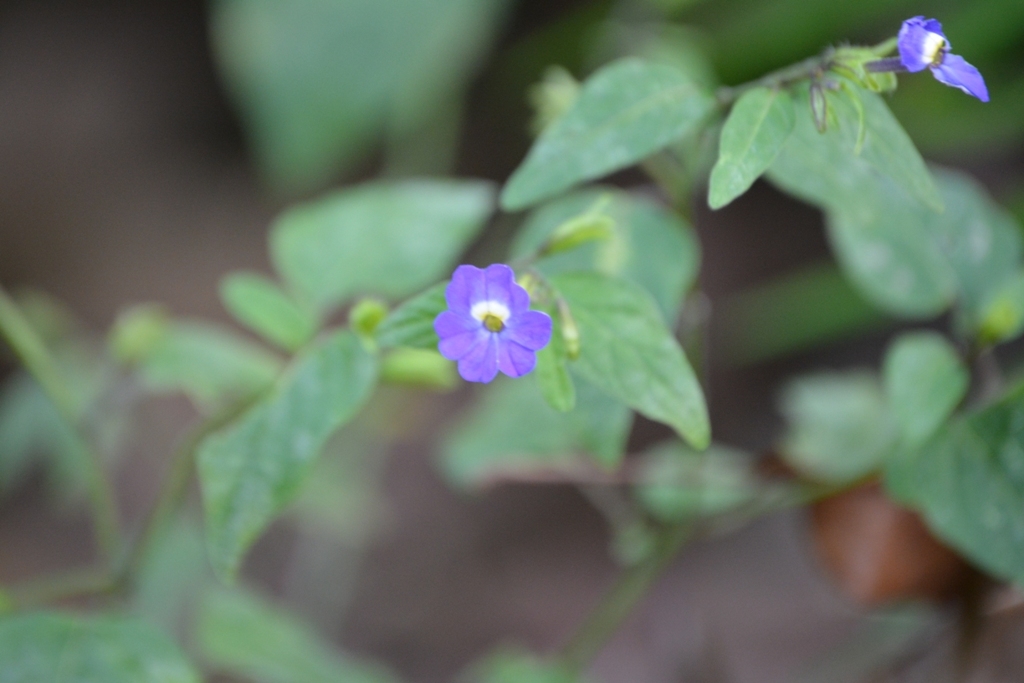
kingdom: Plantae
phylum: Tracheophyta
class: Magnoliopsida
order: Solanales
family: Solanaceae
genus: Browallia
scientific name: Browallia americana
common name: Jamaican forget-me-not
